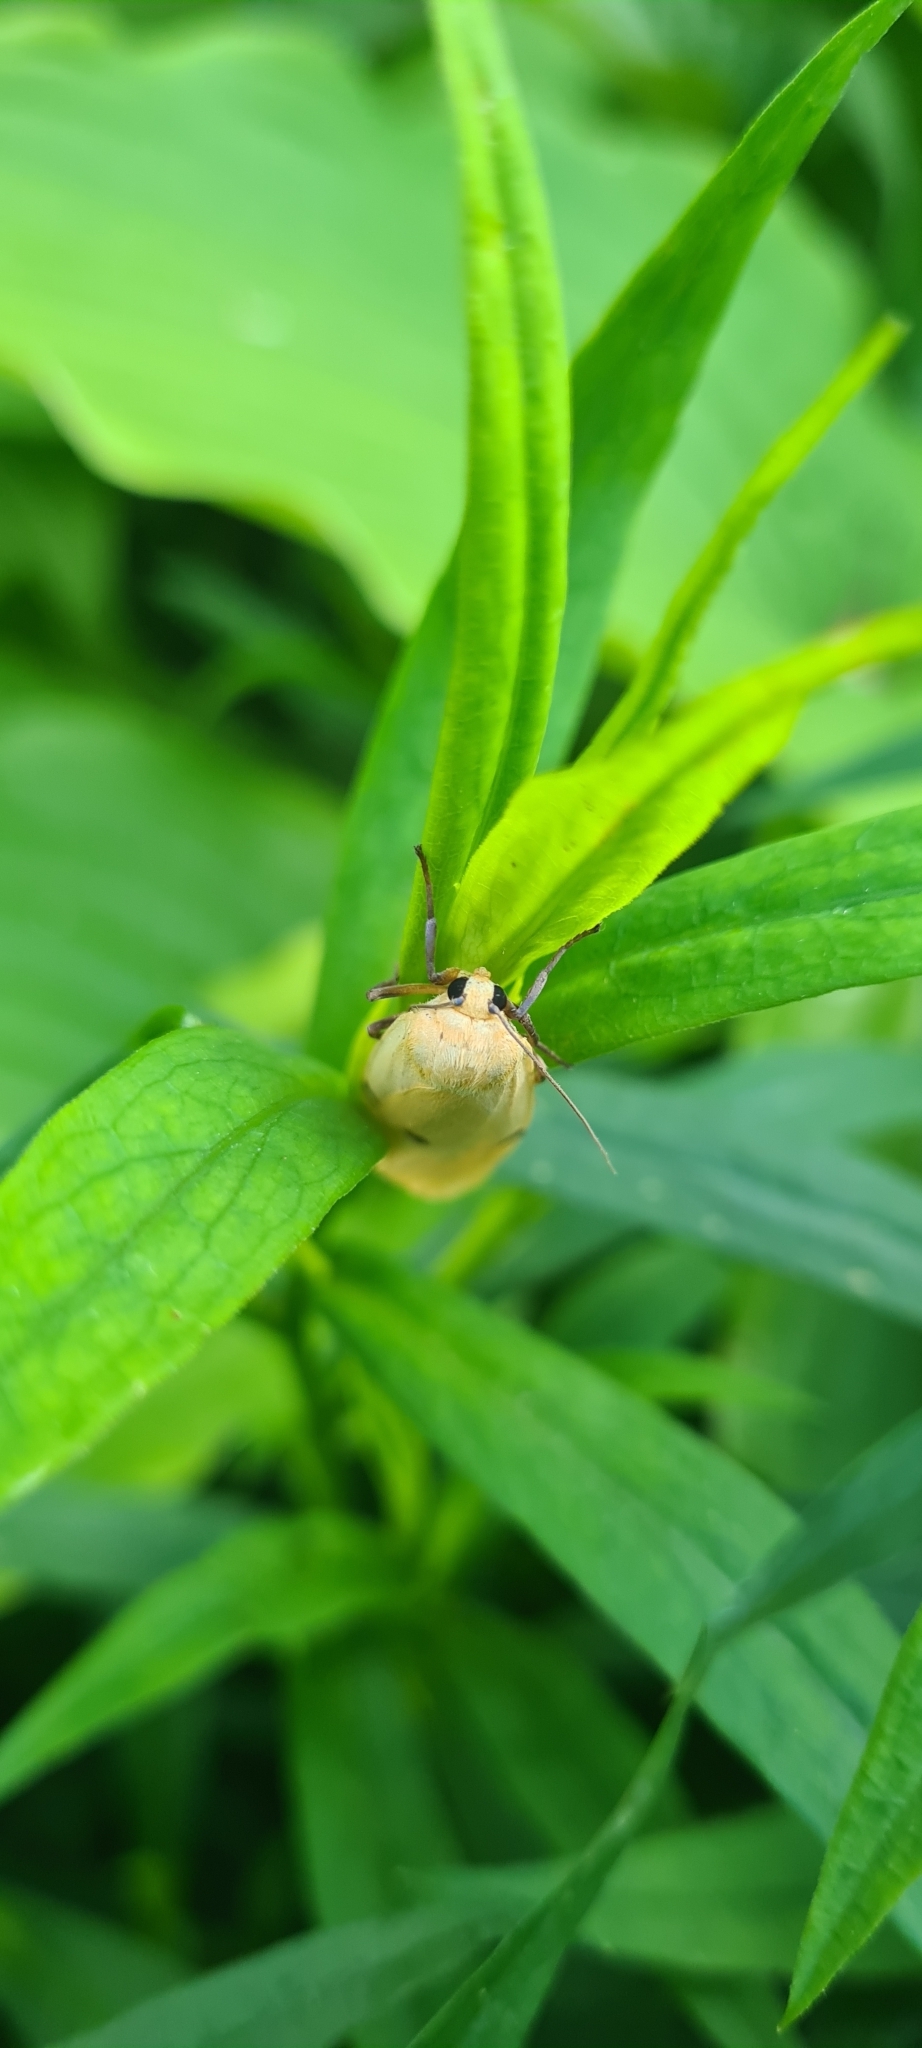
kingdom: Animalia
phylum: Arthropoda
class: Insecta
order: Lepidoptera
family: Erebidae
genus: Lithosia
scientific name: Lithosia quadra
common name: Four-spotted footman
